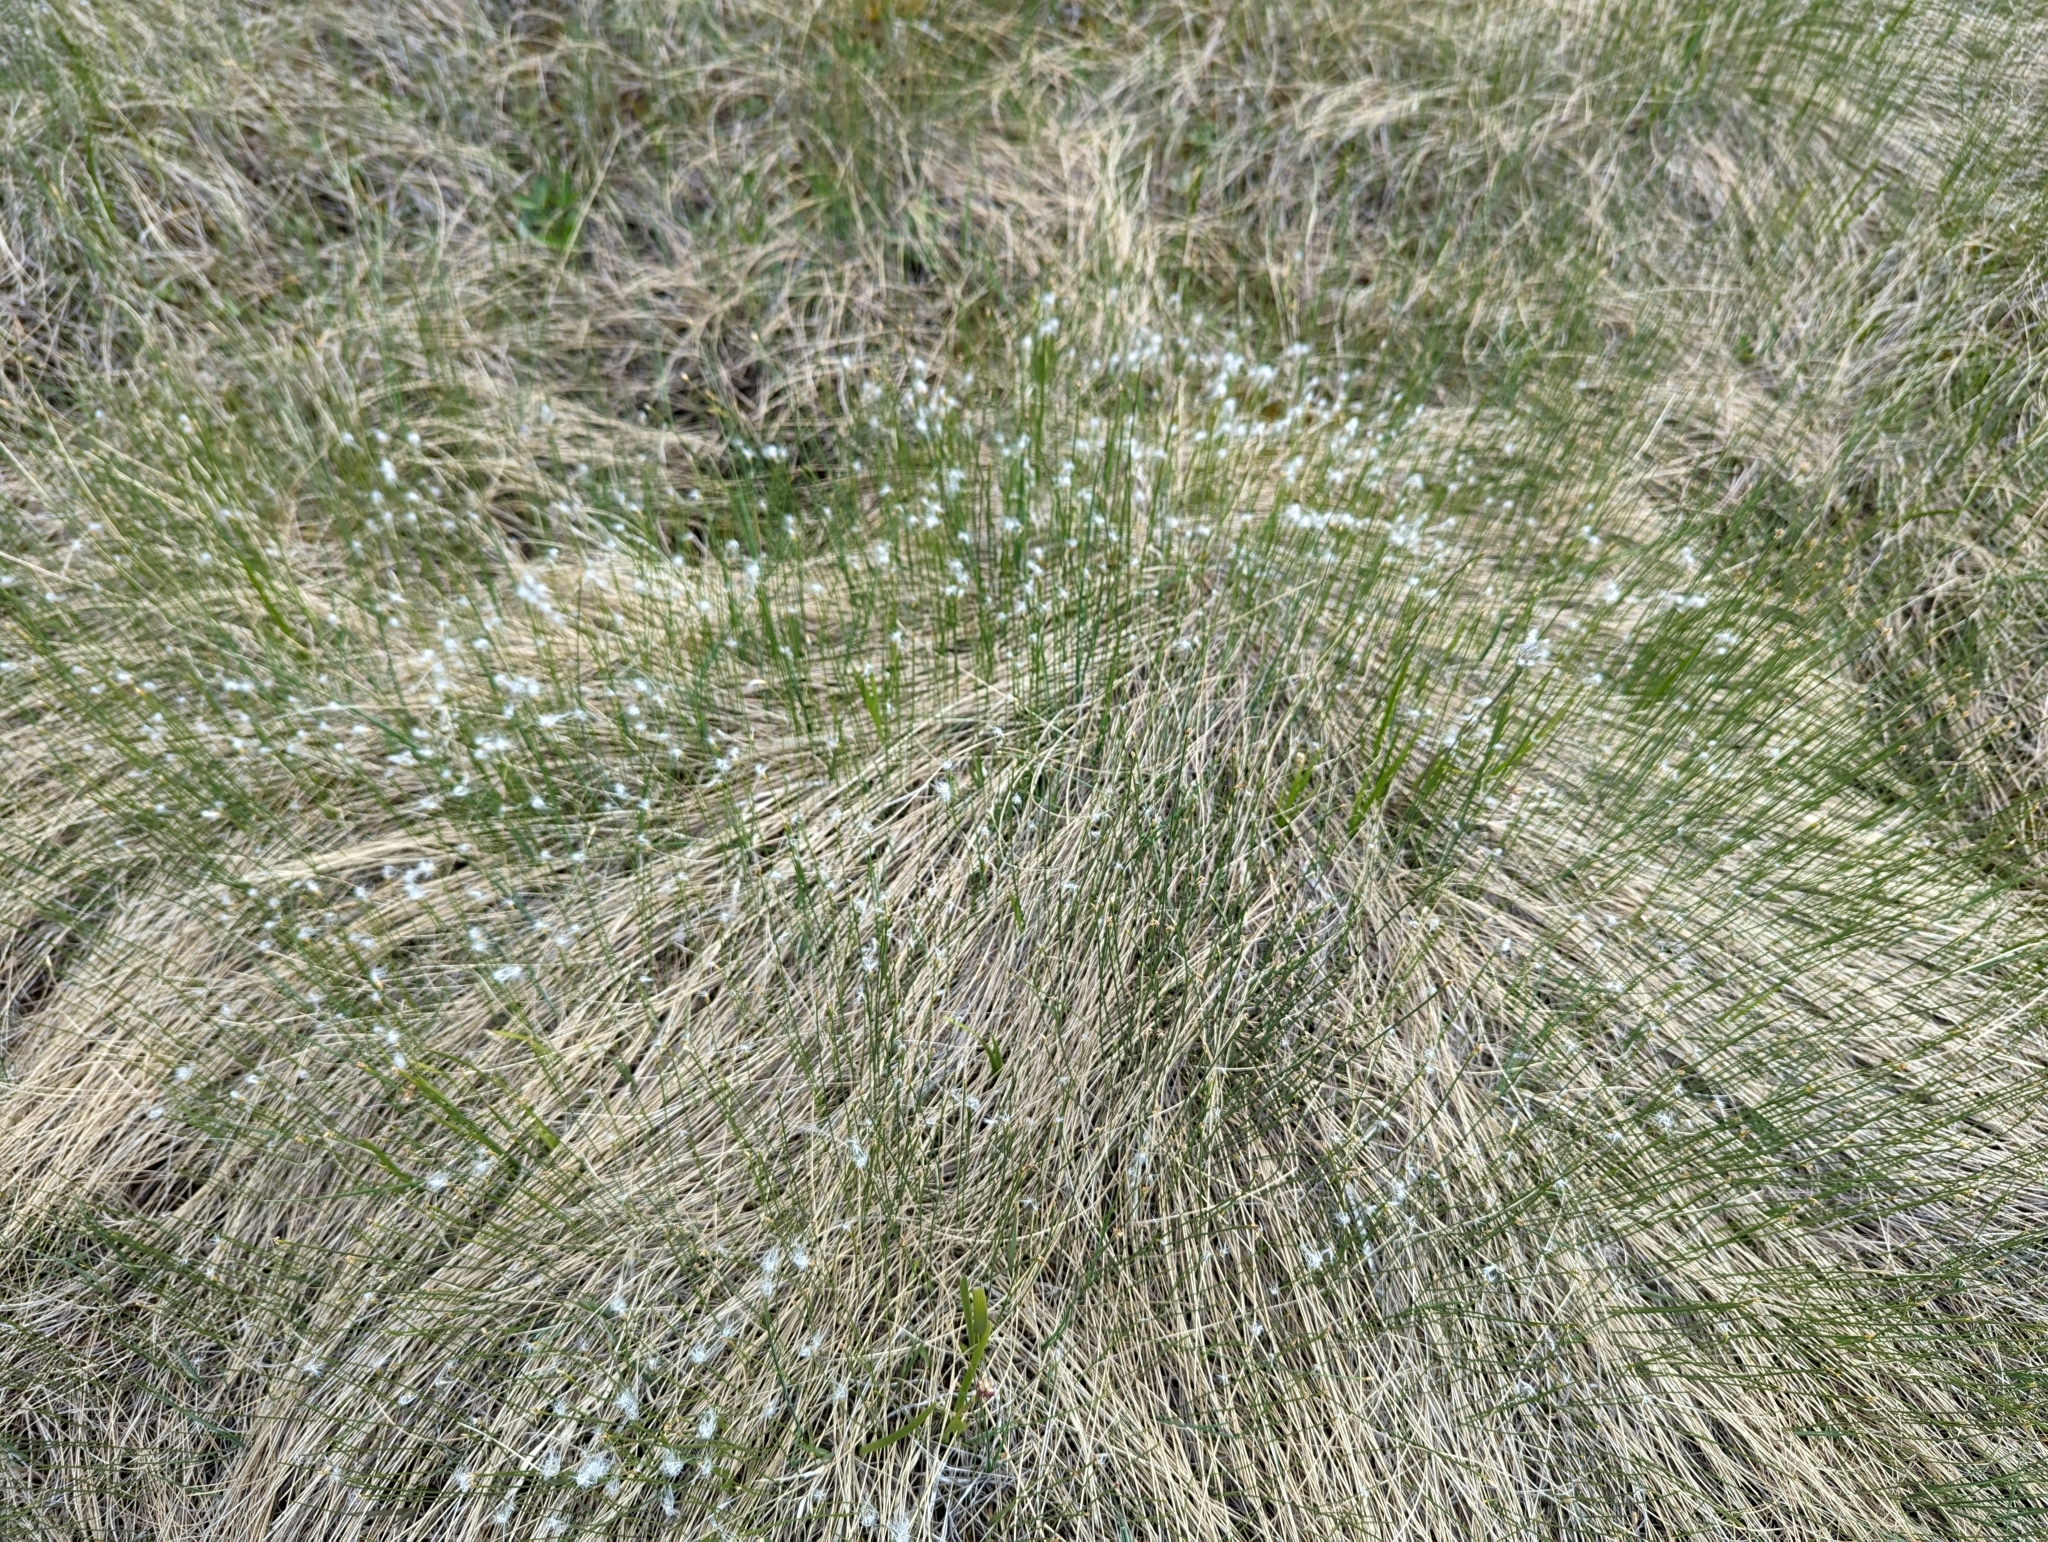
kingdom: Plantae
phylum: Tracheophyta
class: Liliopsida
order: Poales
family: Cyperaceae
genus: Trichophorum
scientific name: Trichophorum cespitosum
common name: Cespitose bulrush
